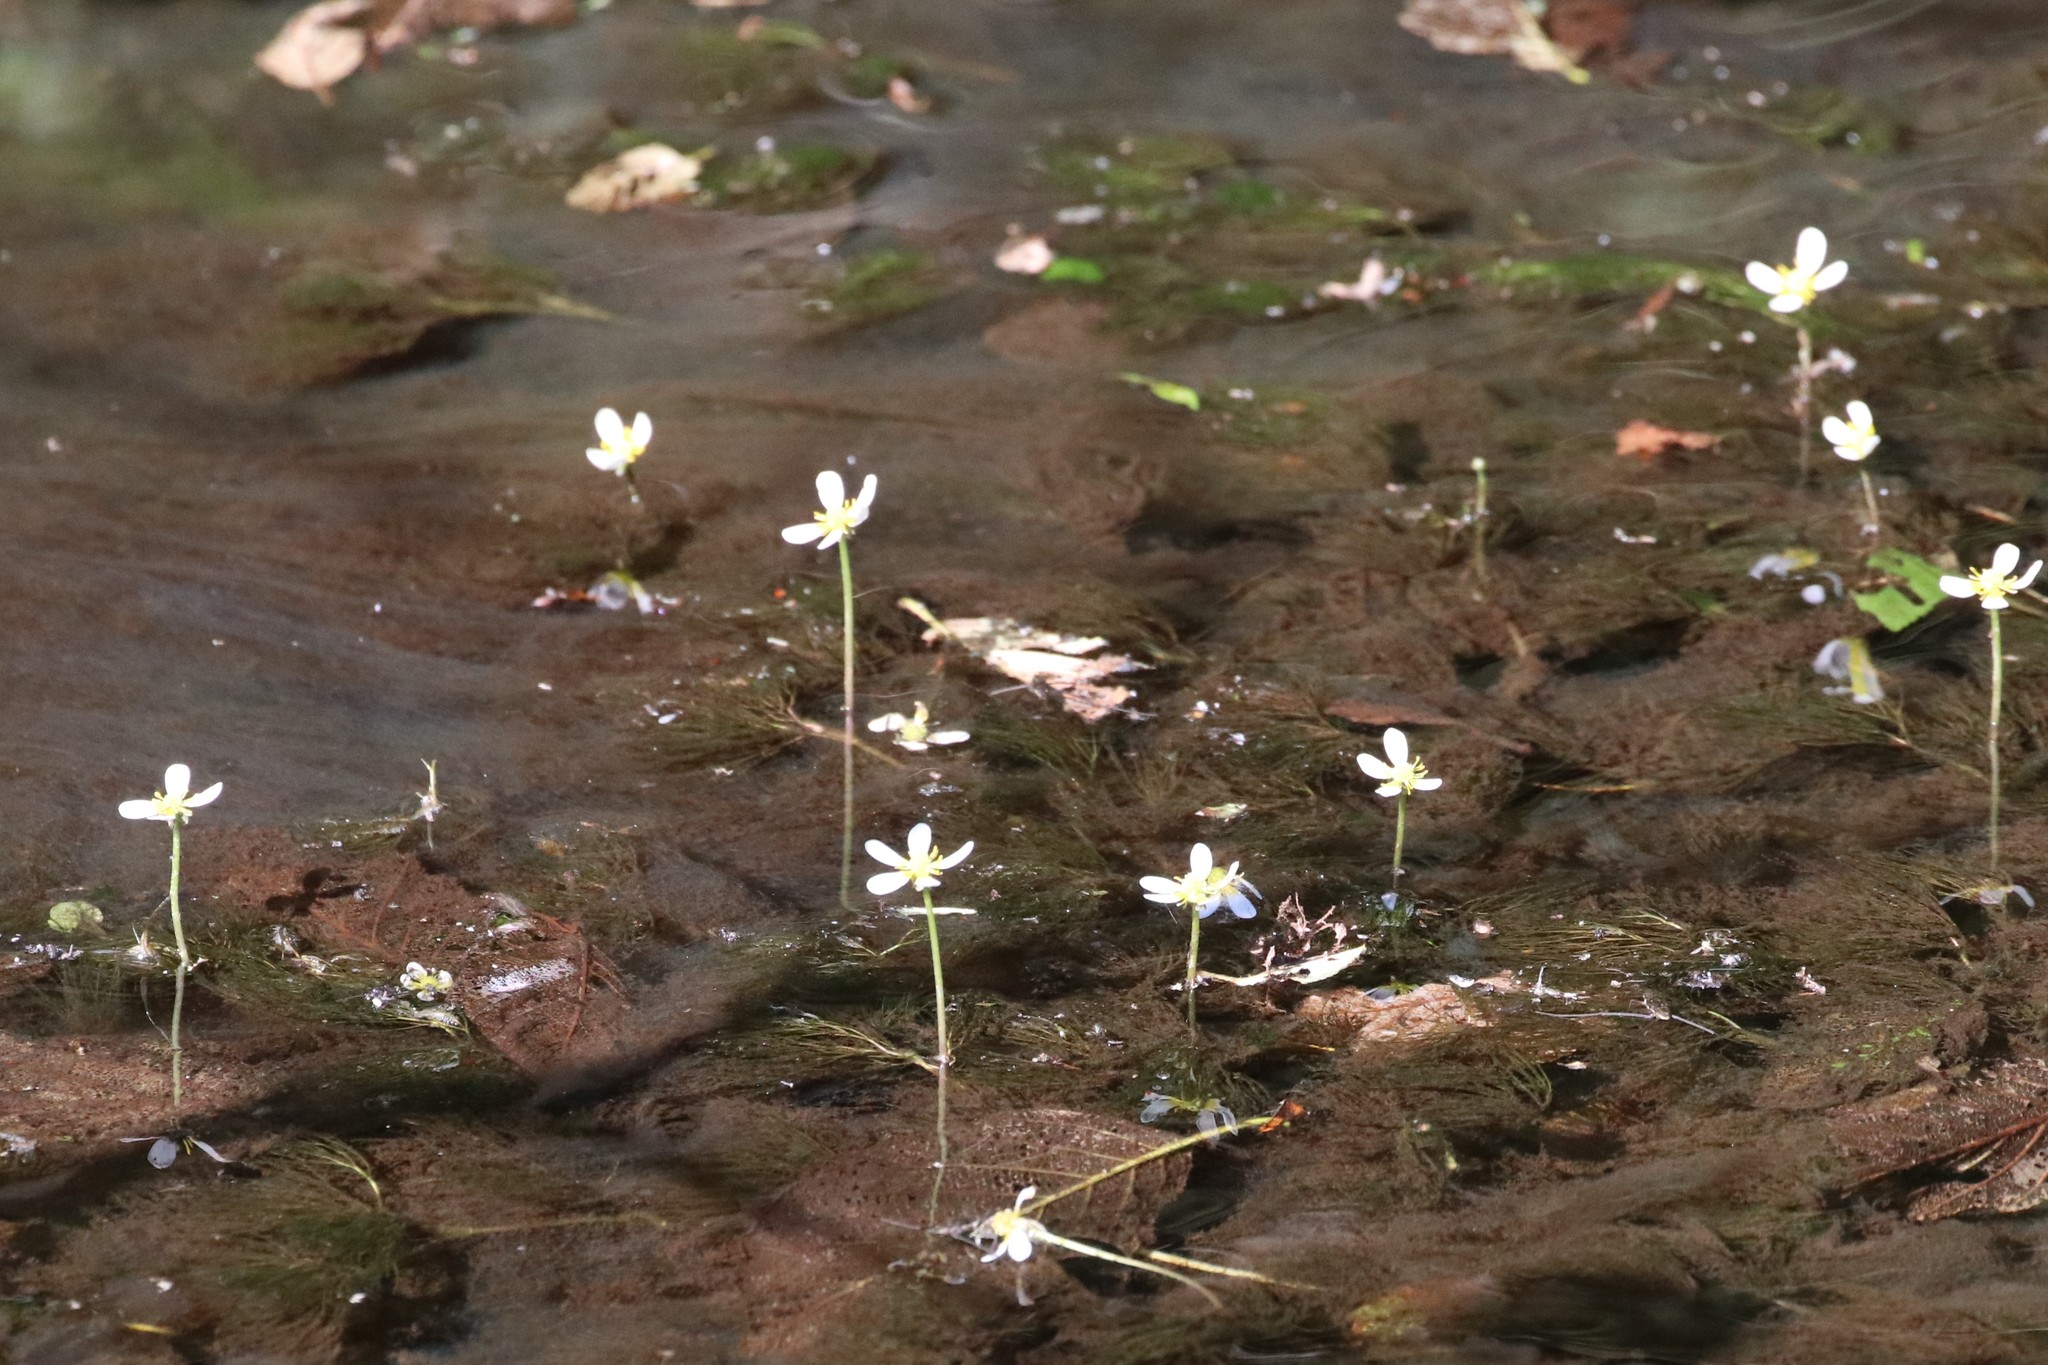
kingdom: Plantae
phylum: Tracheophyta
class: Magnoliopsida
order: Ranunculales
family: Ranunculaceae
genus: Ranunculus
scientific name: Ranunculus aquatilis
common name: Common water-crowfoot
